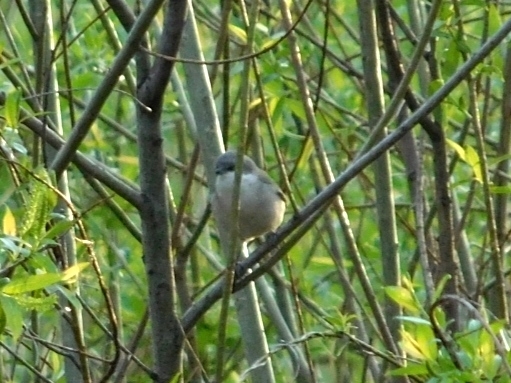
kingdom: Animalia
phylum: Chordata
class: Aves
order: Passeriformes
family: Sylviidae
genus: Sylvia
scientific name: Sylvia curruca
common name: Lesser whitethroat
